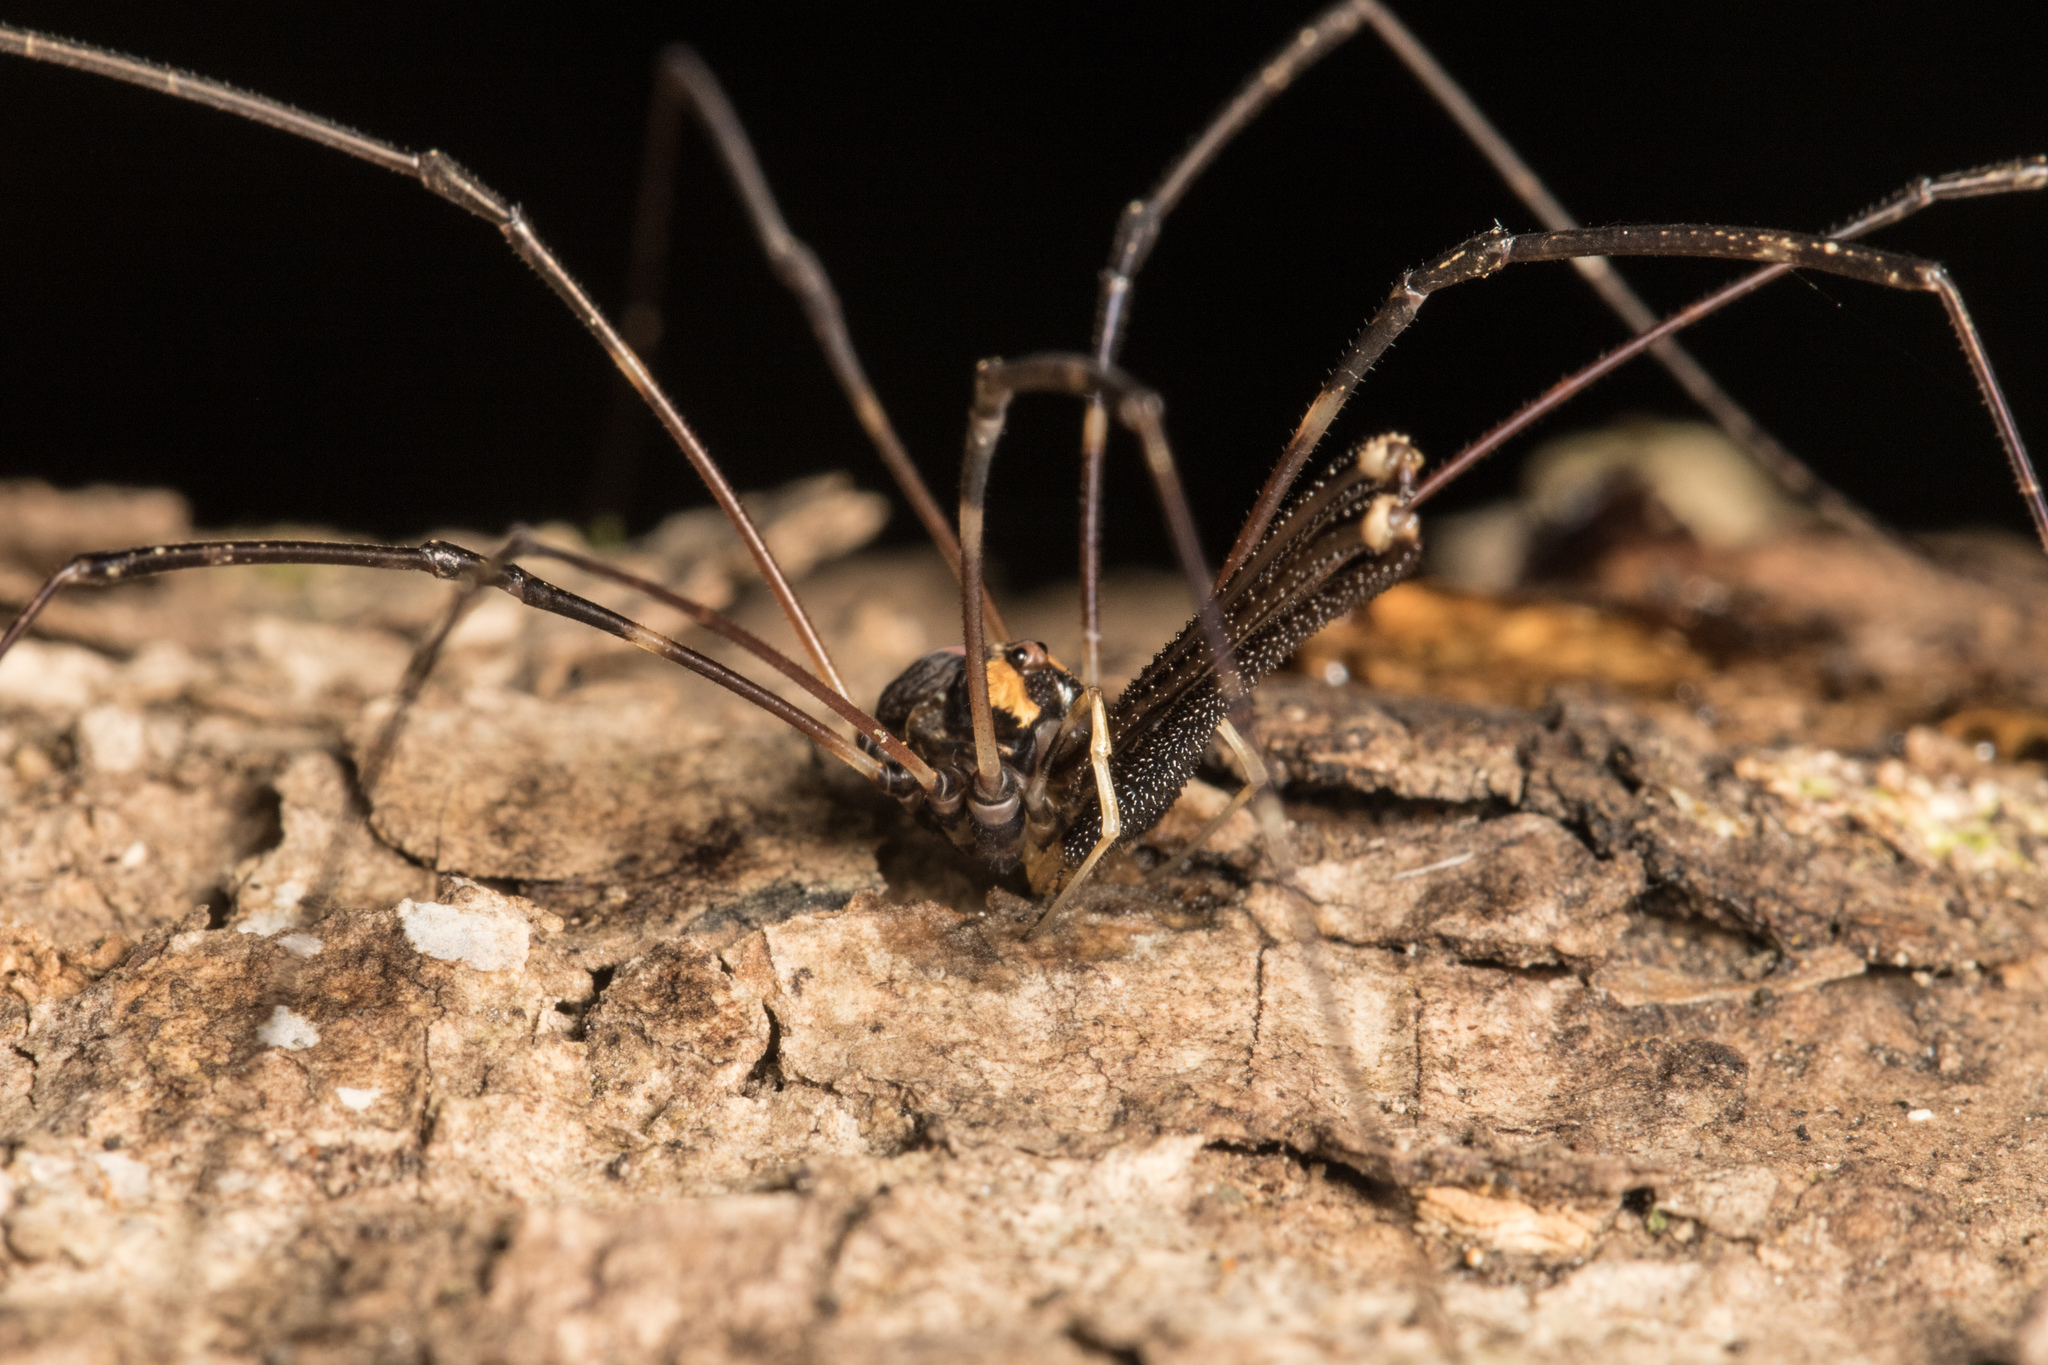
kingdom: Animalia
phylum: Arthropoda
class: Arachnida
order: Opiliones
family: Neopilionidae
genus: Forsteropsalis
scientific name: Forsteropsalis pureora
